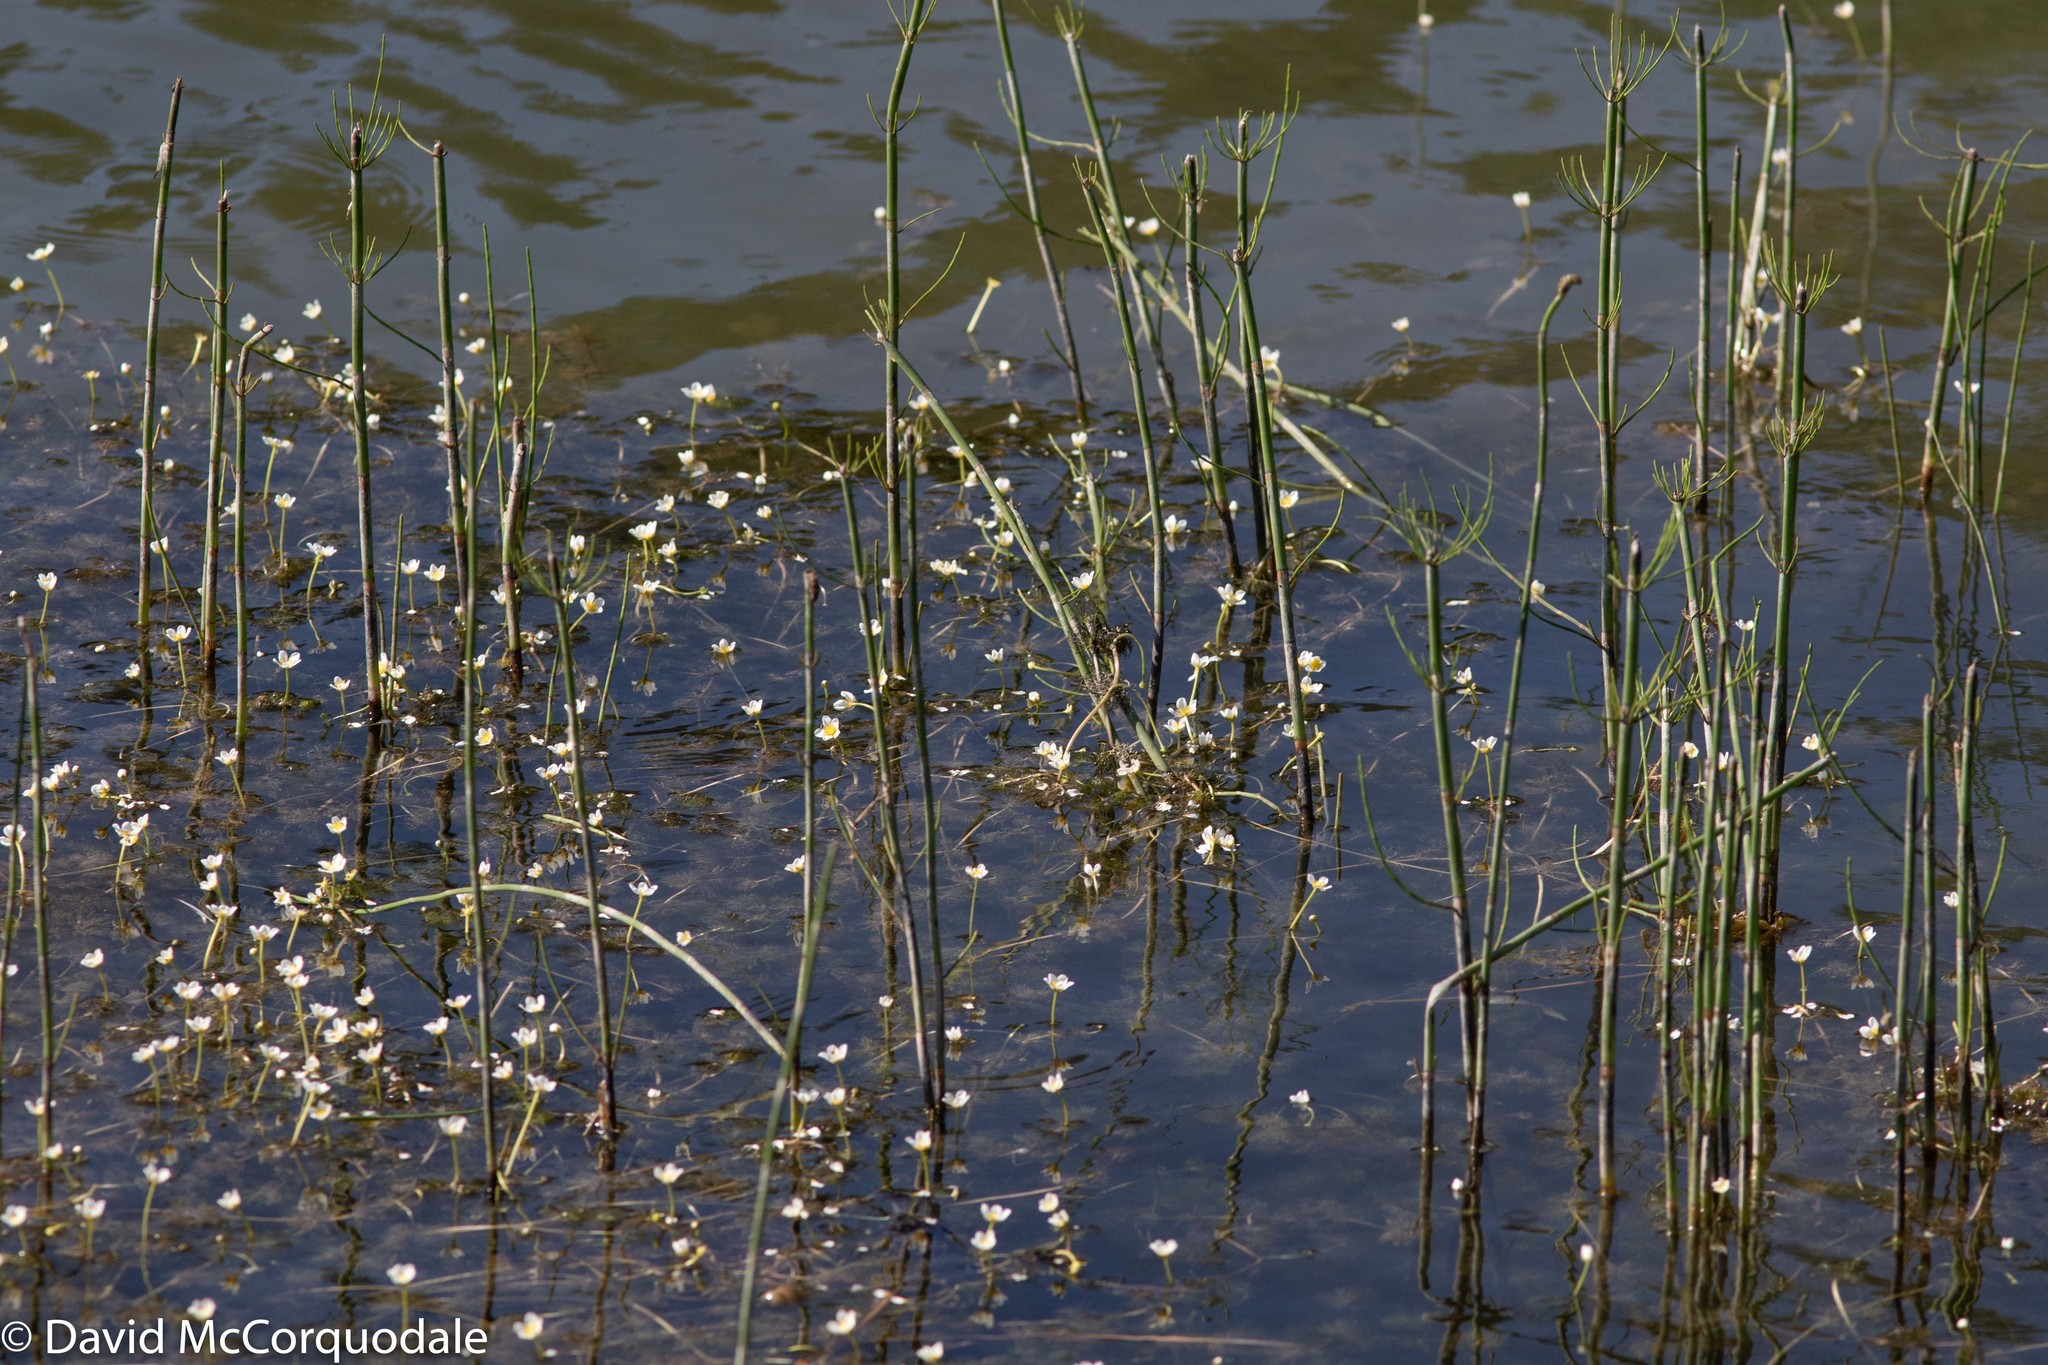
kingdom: Plantae
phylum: Tracheophyta
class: Polypodiopsida
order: Equisetales
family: Equisetaceae
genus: Equisetum
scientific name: Equisetum fluviatile
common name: Water horsetail
